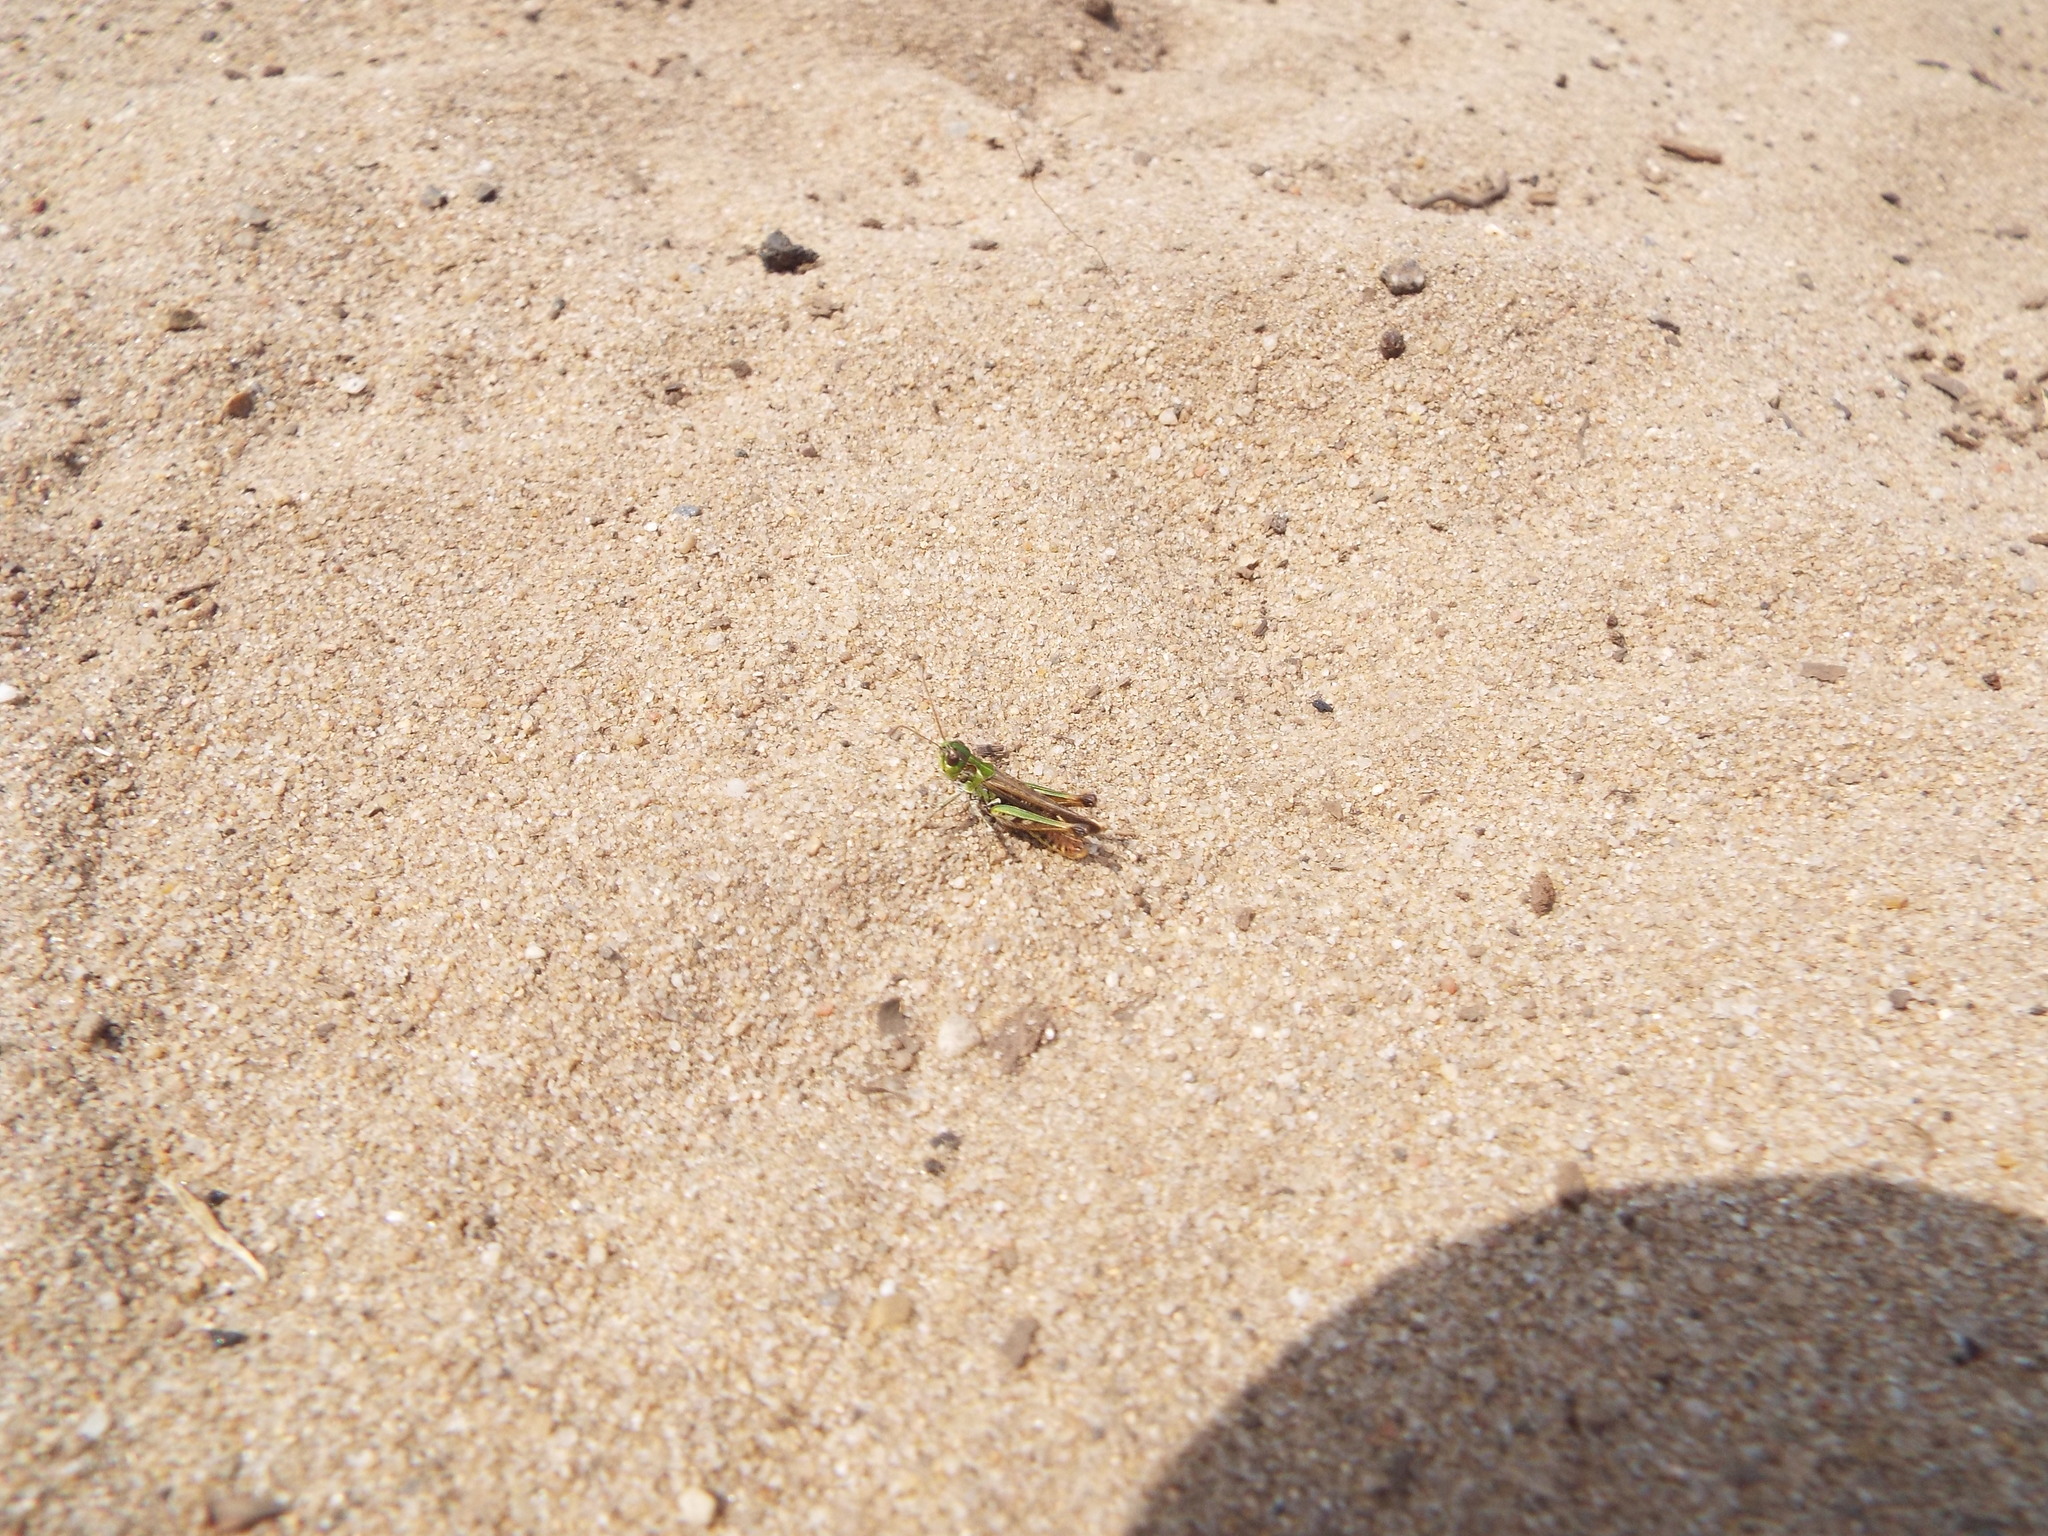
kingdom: Animalia
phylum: Arthropoda
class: Insecta
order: Orthoptera
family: Acrididae
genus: Myrmeleotettix
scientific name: Myrmeleotettix maculatus
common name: Mottled grasshopper
